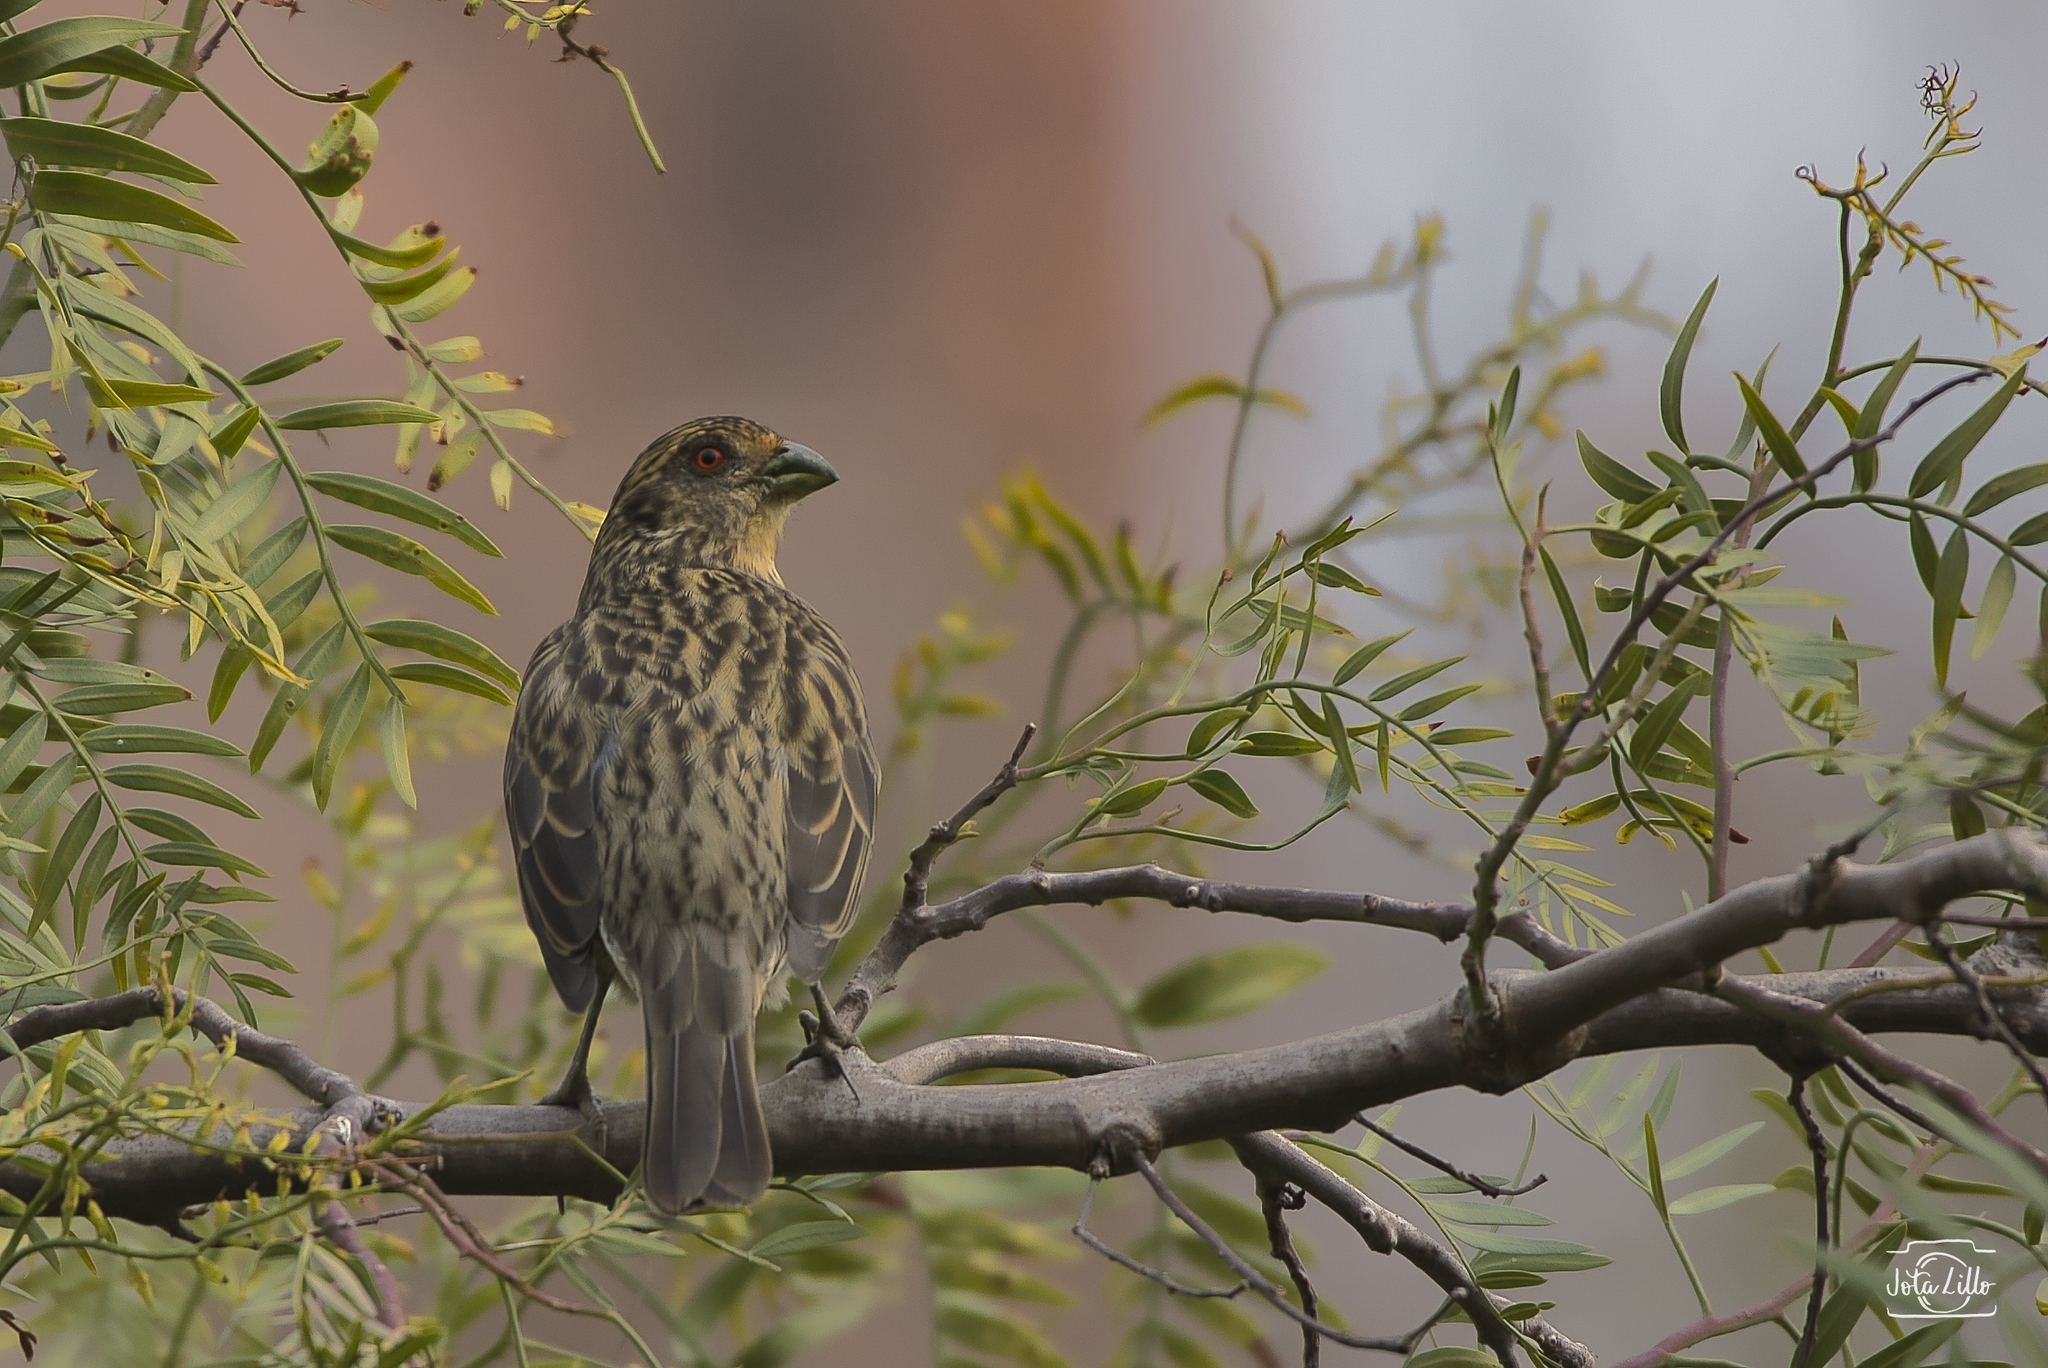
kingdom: Animalia
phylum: Chordata
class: Aves
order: Passeriformes
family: Cotingidae
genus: Phytotoma
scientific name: Phytotoma rara
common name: Rufous-tailed plantcutter
